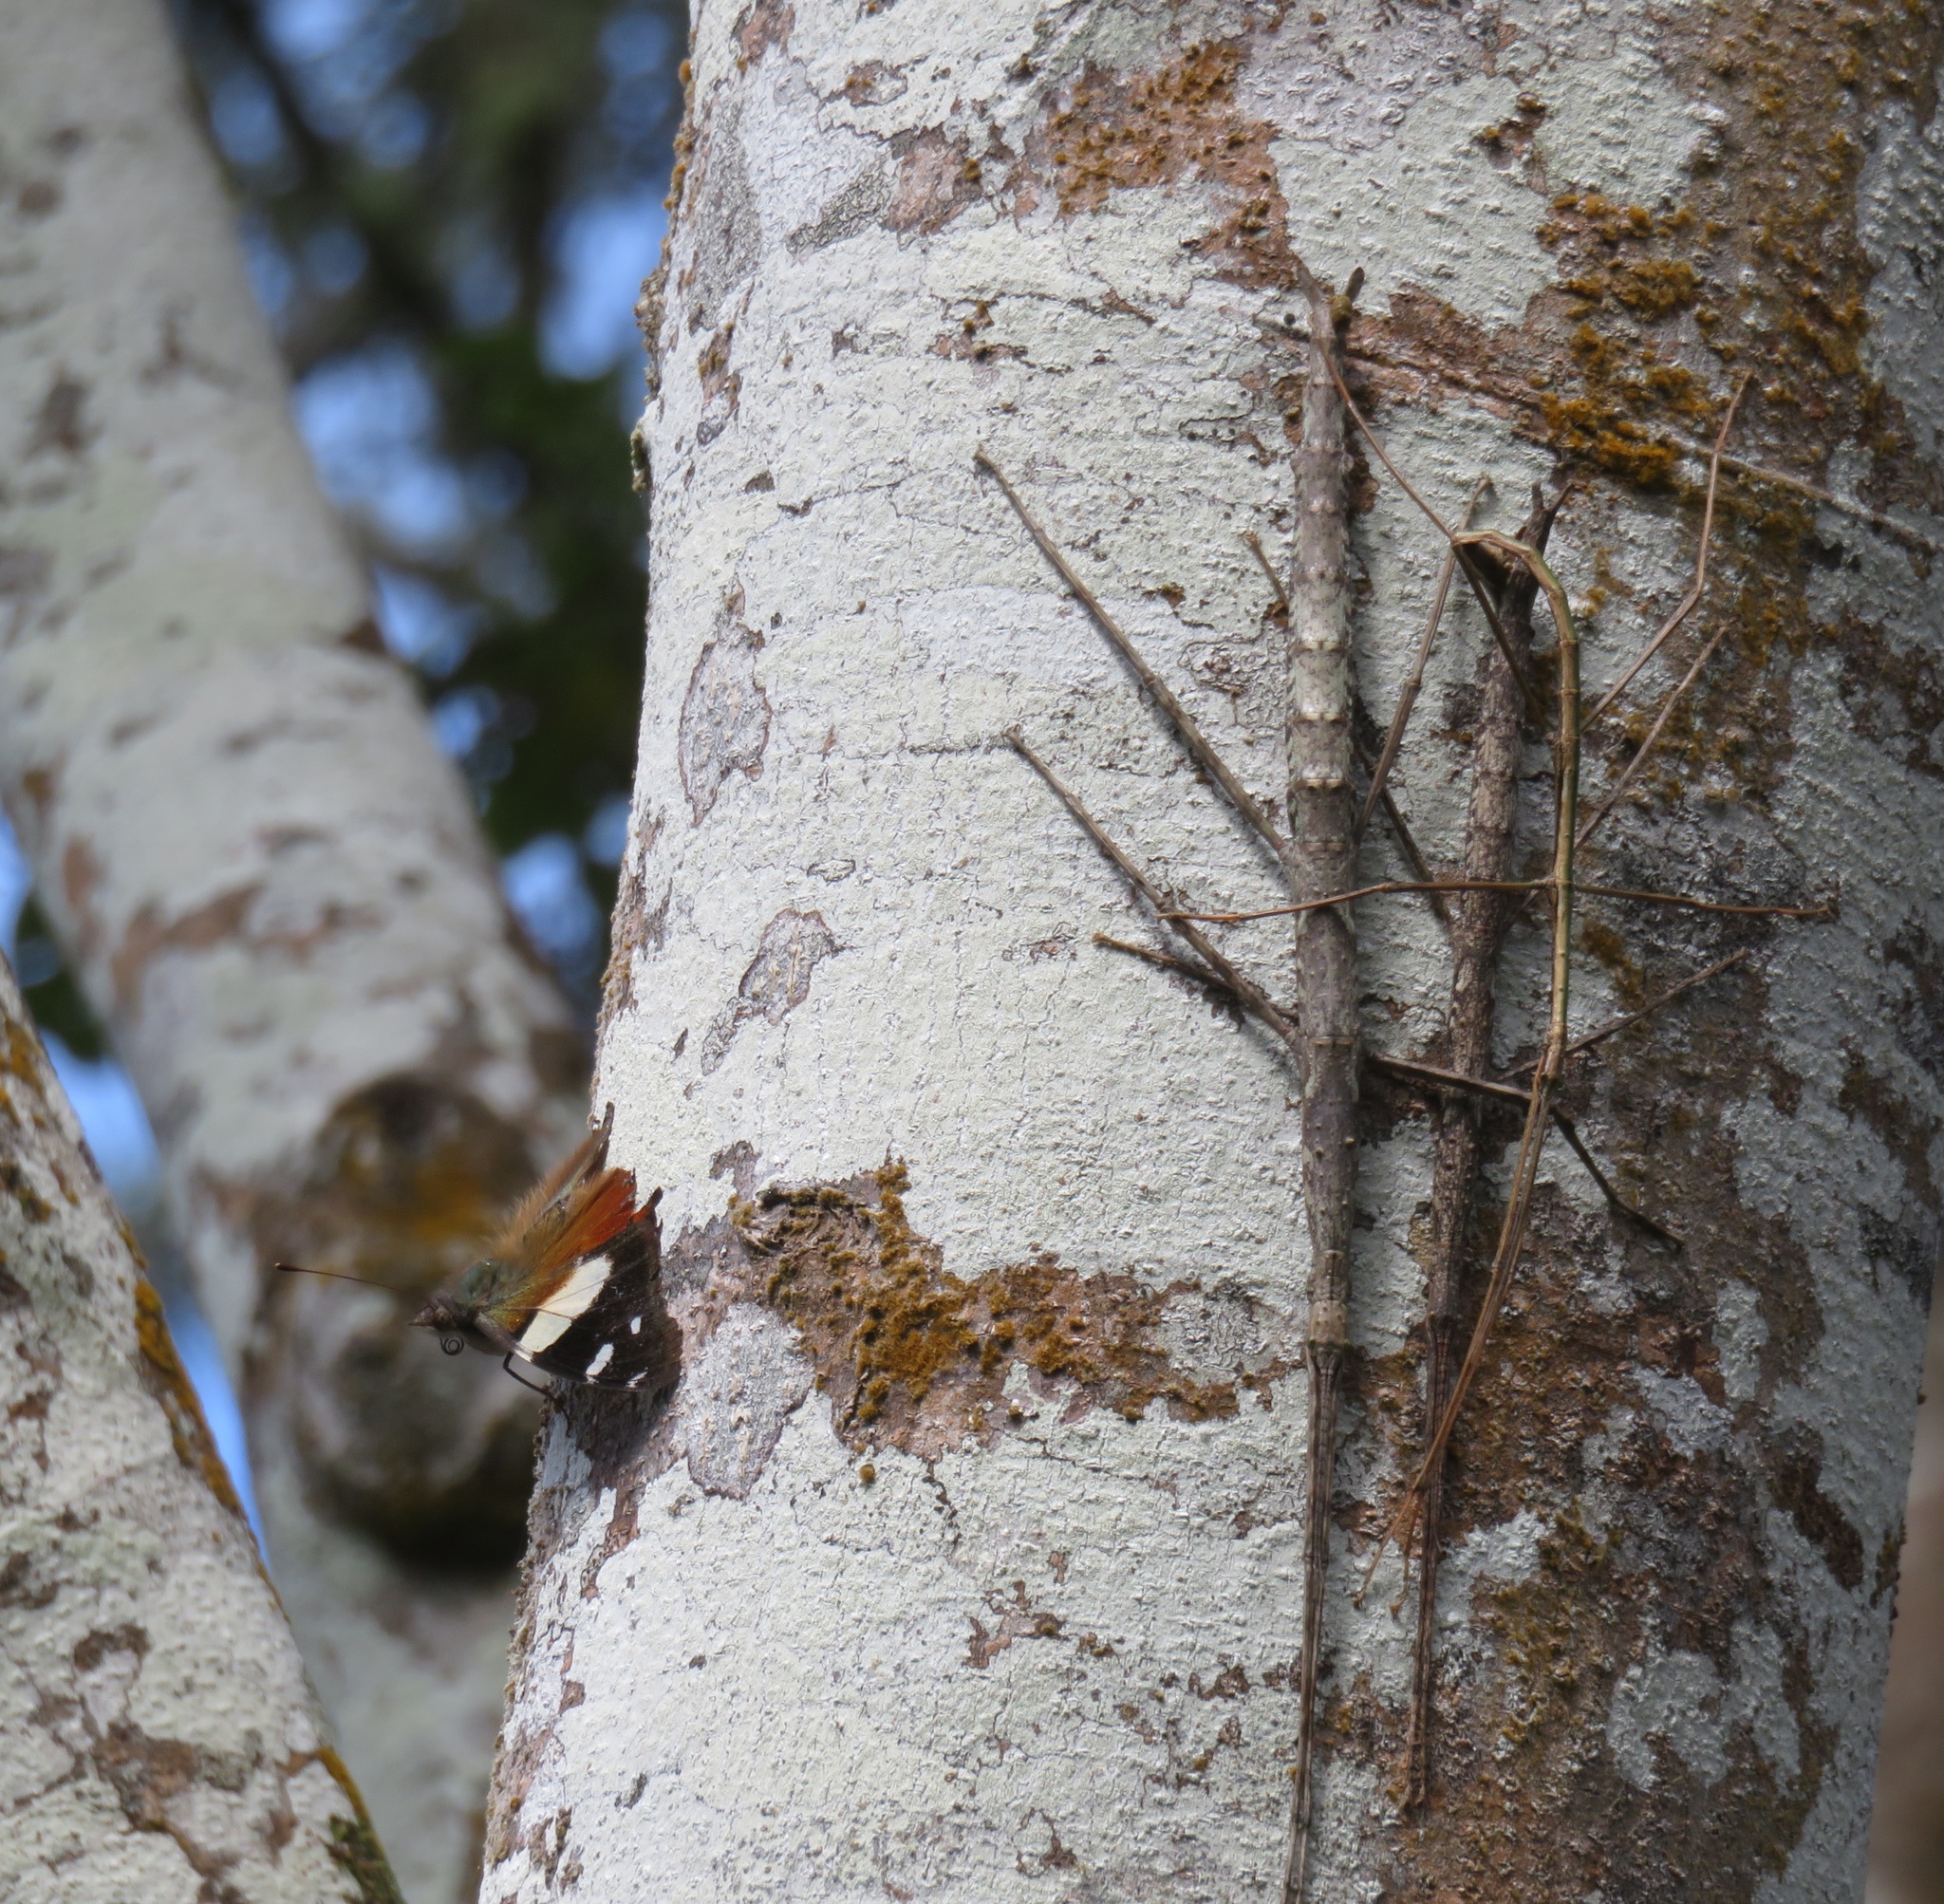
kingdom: Animalia
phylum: Arthropoda
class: Insecta
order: Lepidoptera
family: Nymphalidae
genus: Vanessa
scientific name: Vanessa itea
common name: Yellow admiral
